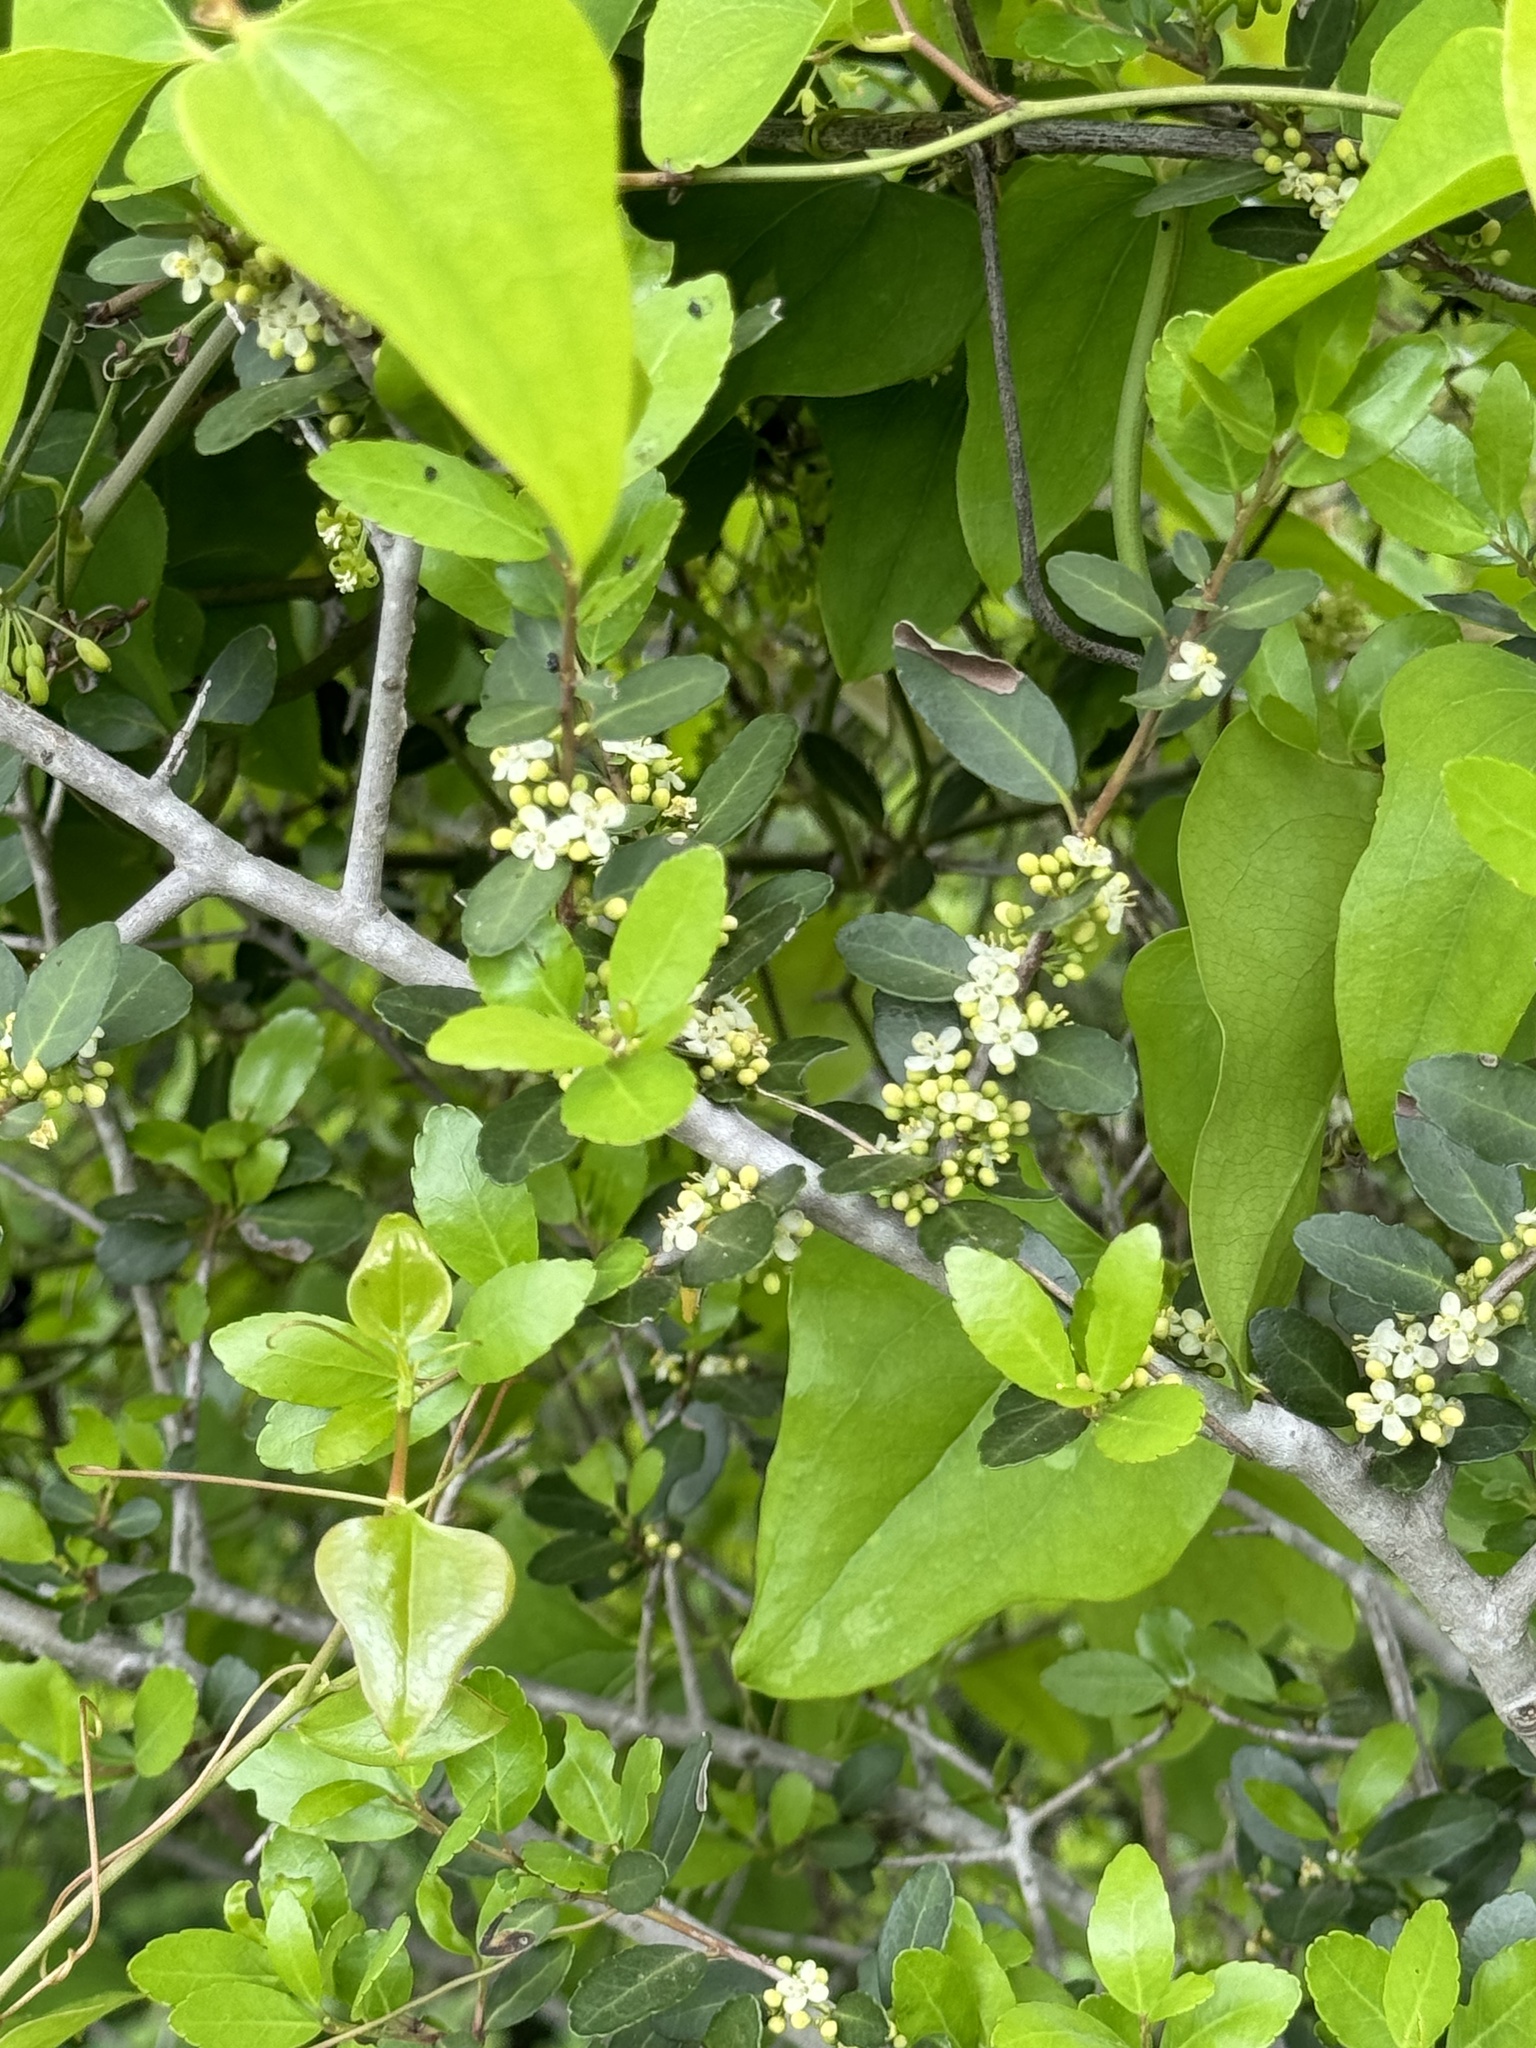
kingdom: Plantae
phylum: Tracheophyta
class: Magnoliopsida
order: Aquifoliales
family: Aquifoliaceae
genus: Ilex
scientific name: Ilex vomitoria
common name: Yaupon holly
